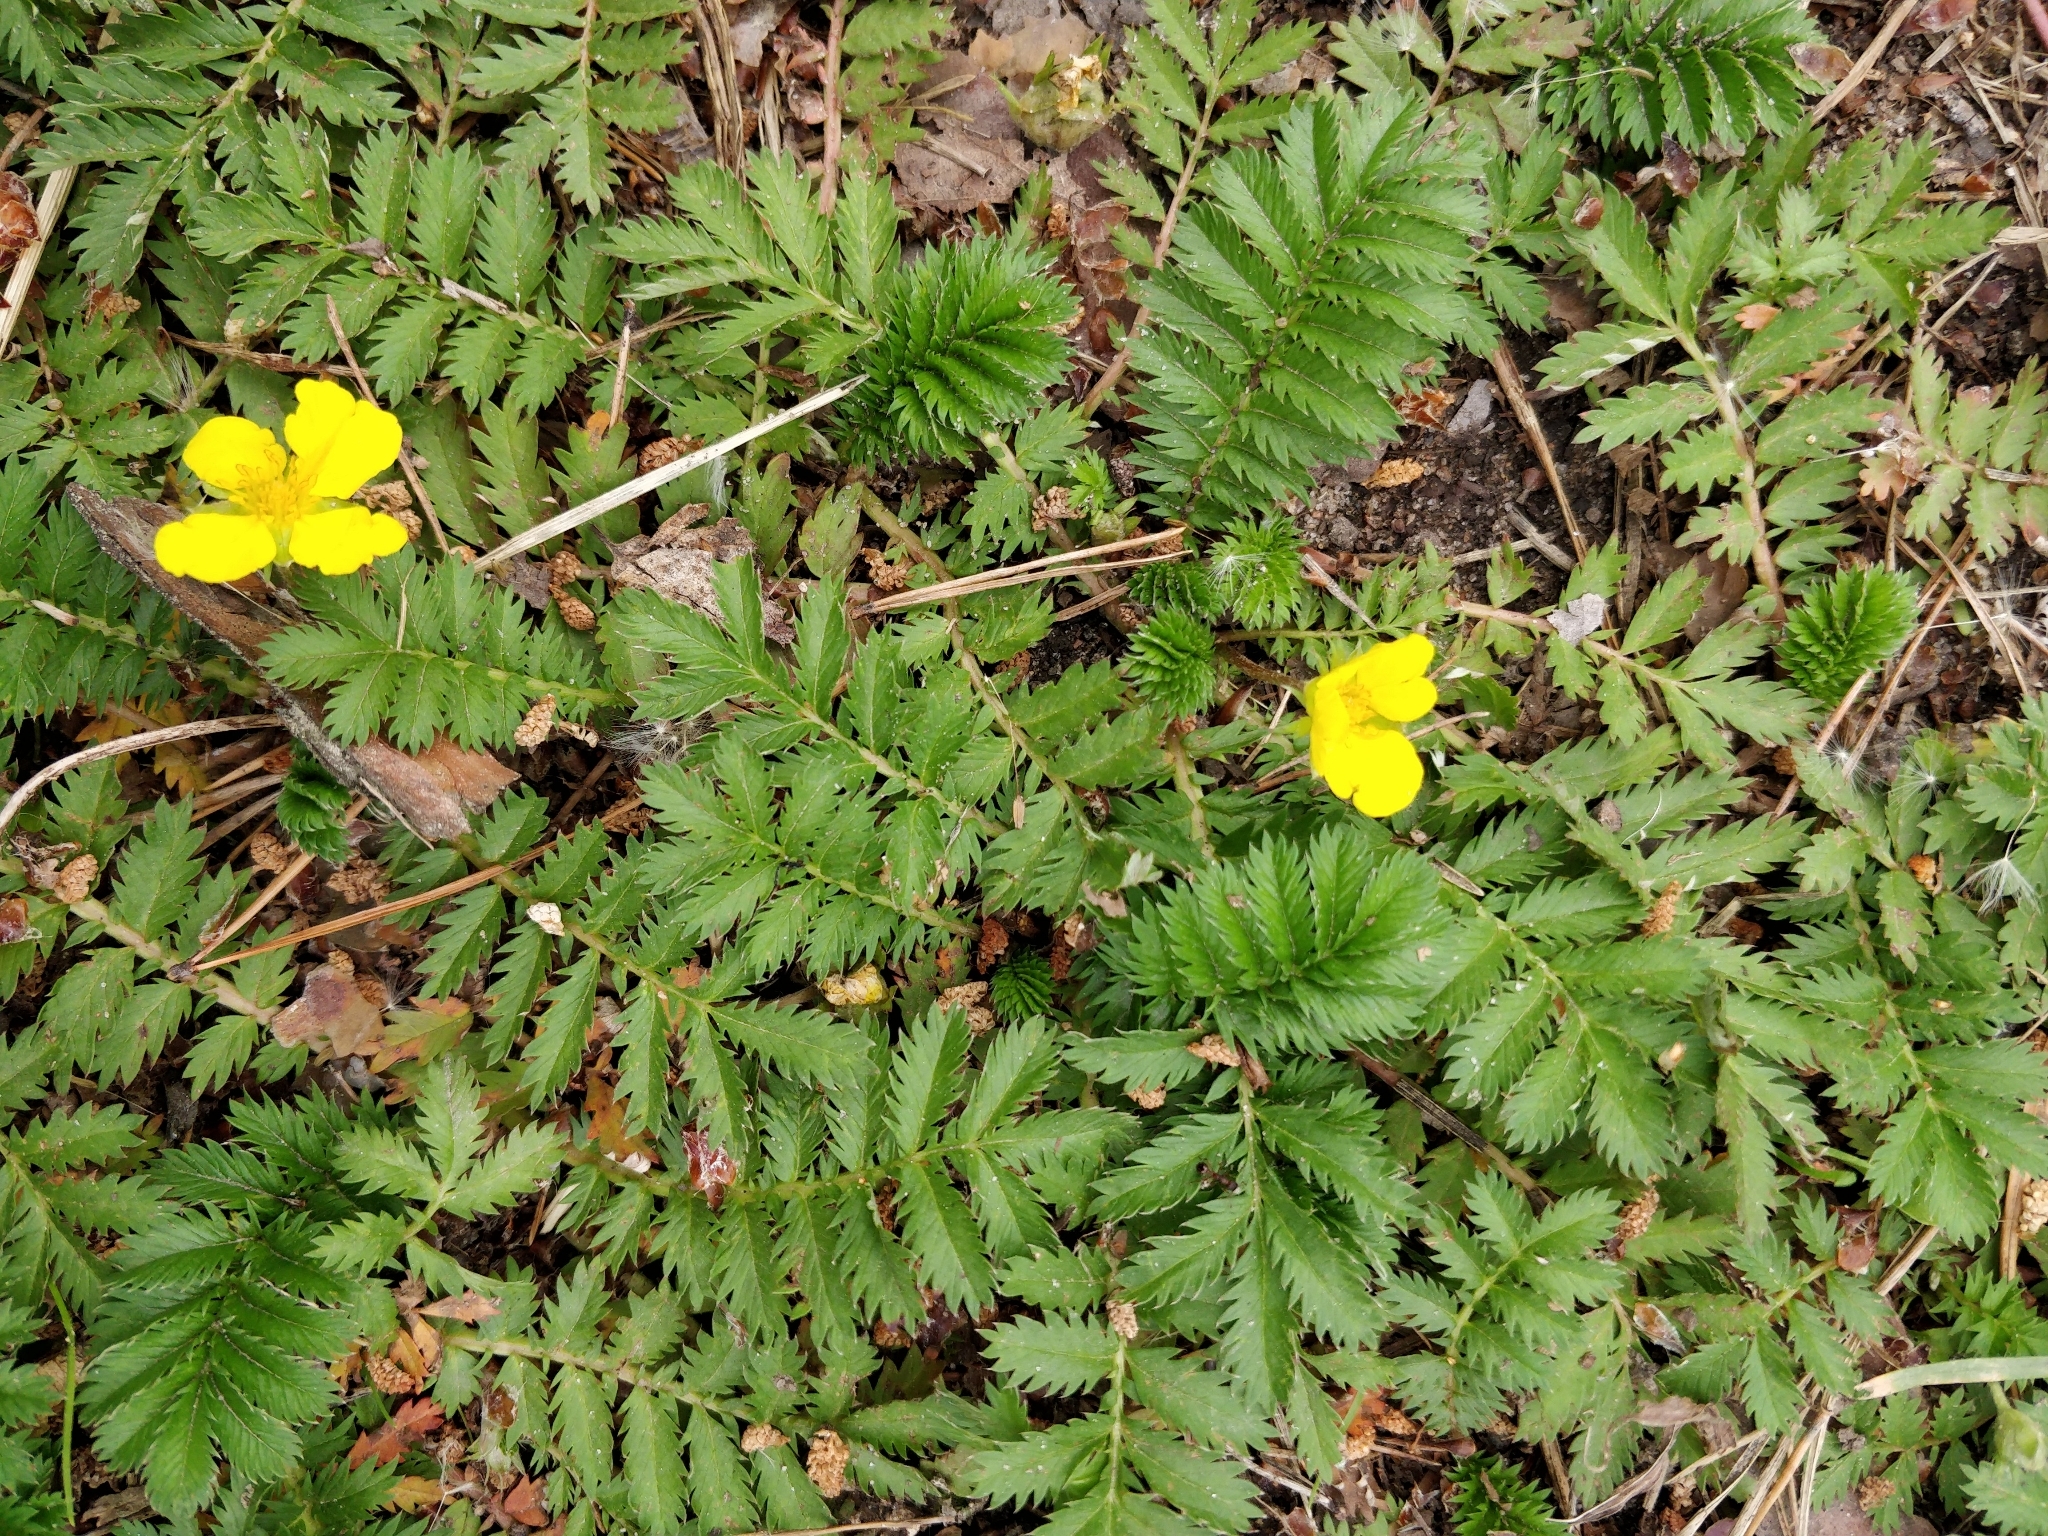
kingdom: Plantae
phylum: Tracheophyta
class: Magnoliopsida
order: Rosales
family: Rosaceae
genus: Argentina
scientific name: Argentina anserina
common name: Common silverweed
